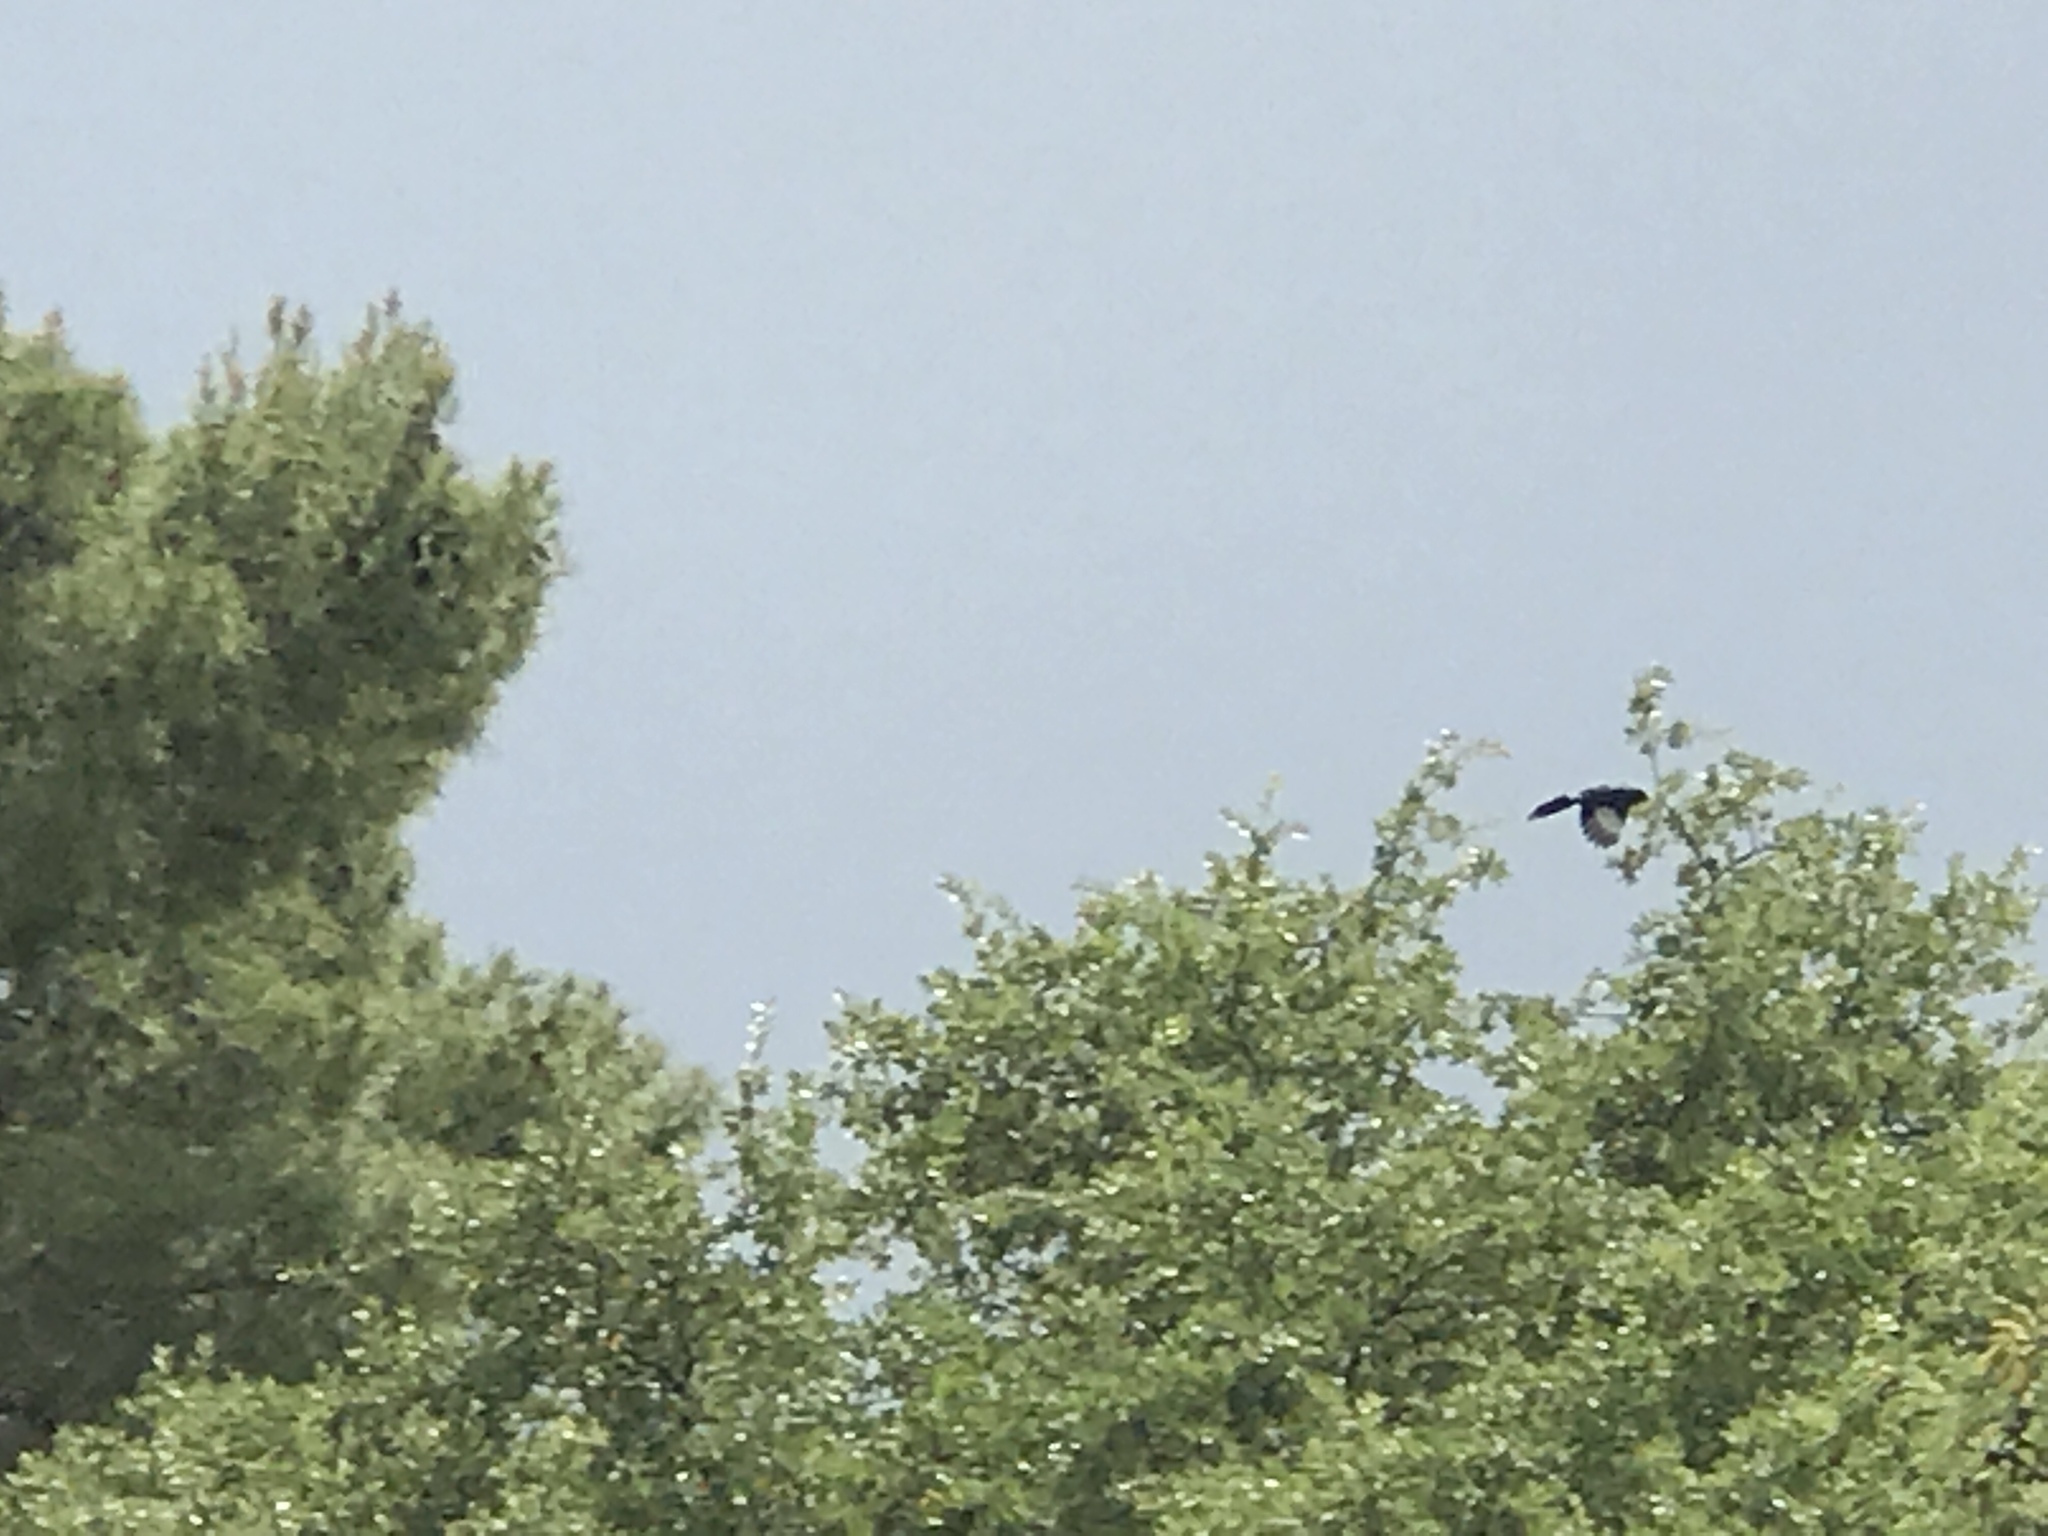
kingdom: Animalia
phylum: Chordata
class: Aves
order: Passeriformes
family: Ptilogonatidae
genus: Phainopepla
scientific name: Phainopepla nitens
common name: Phainopepla
